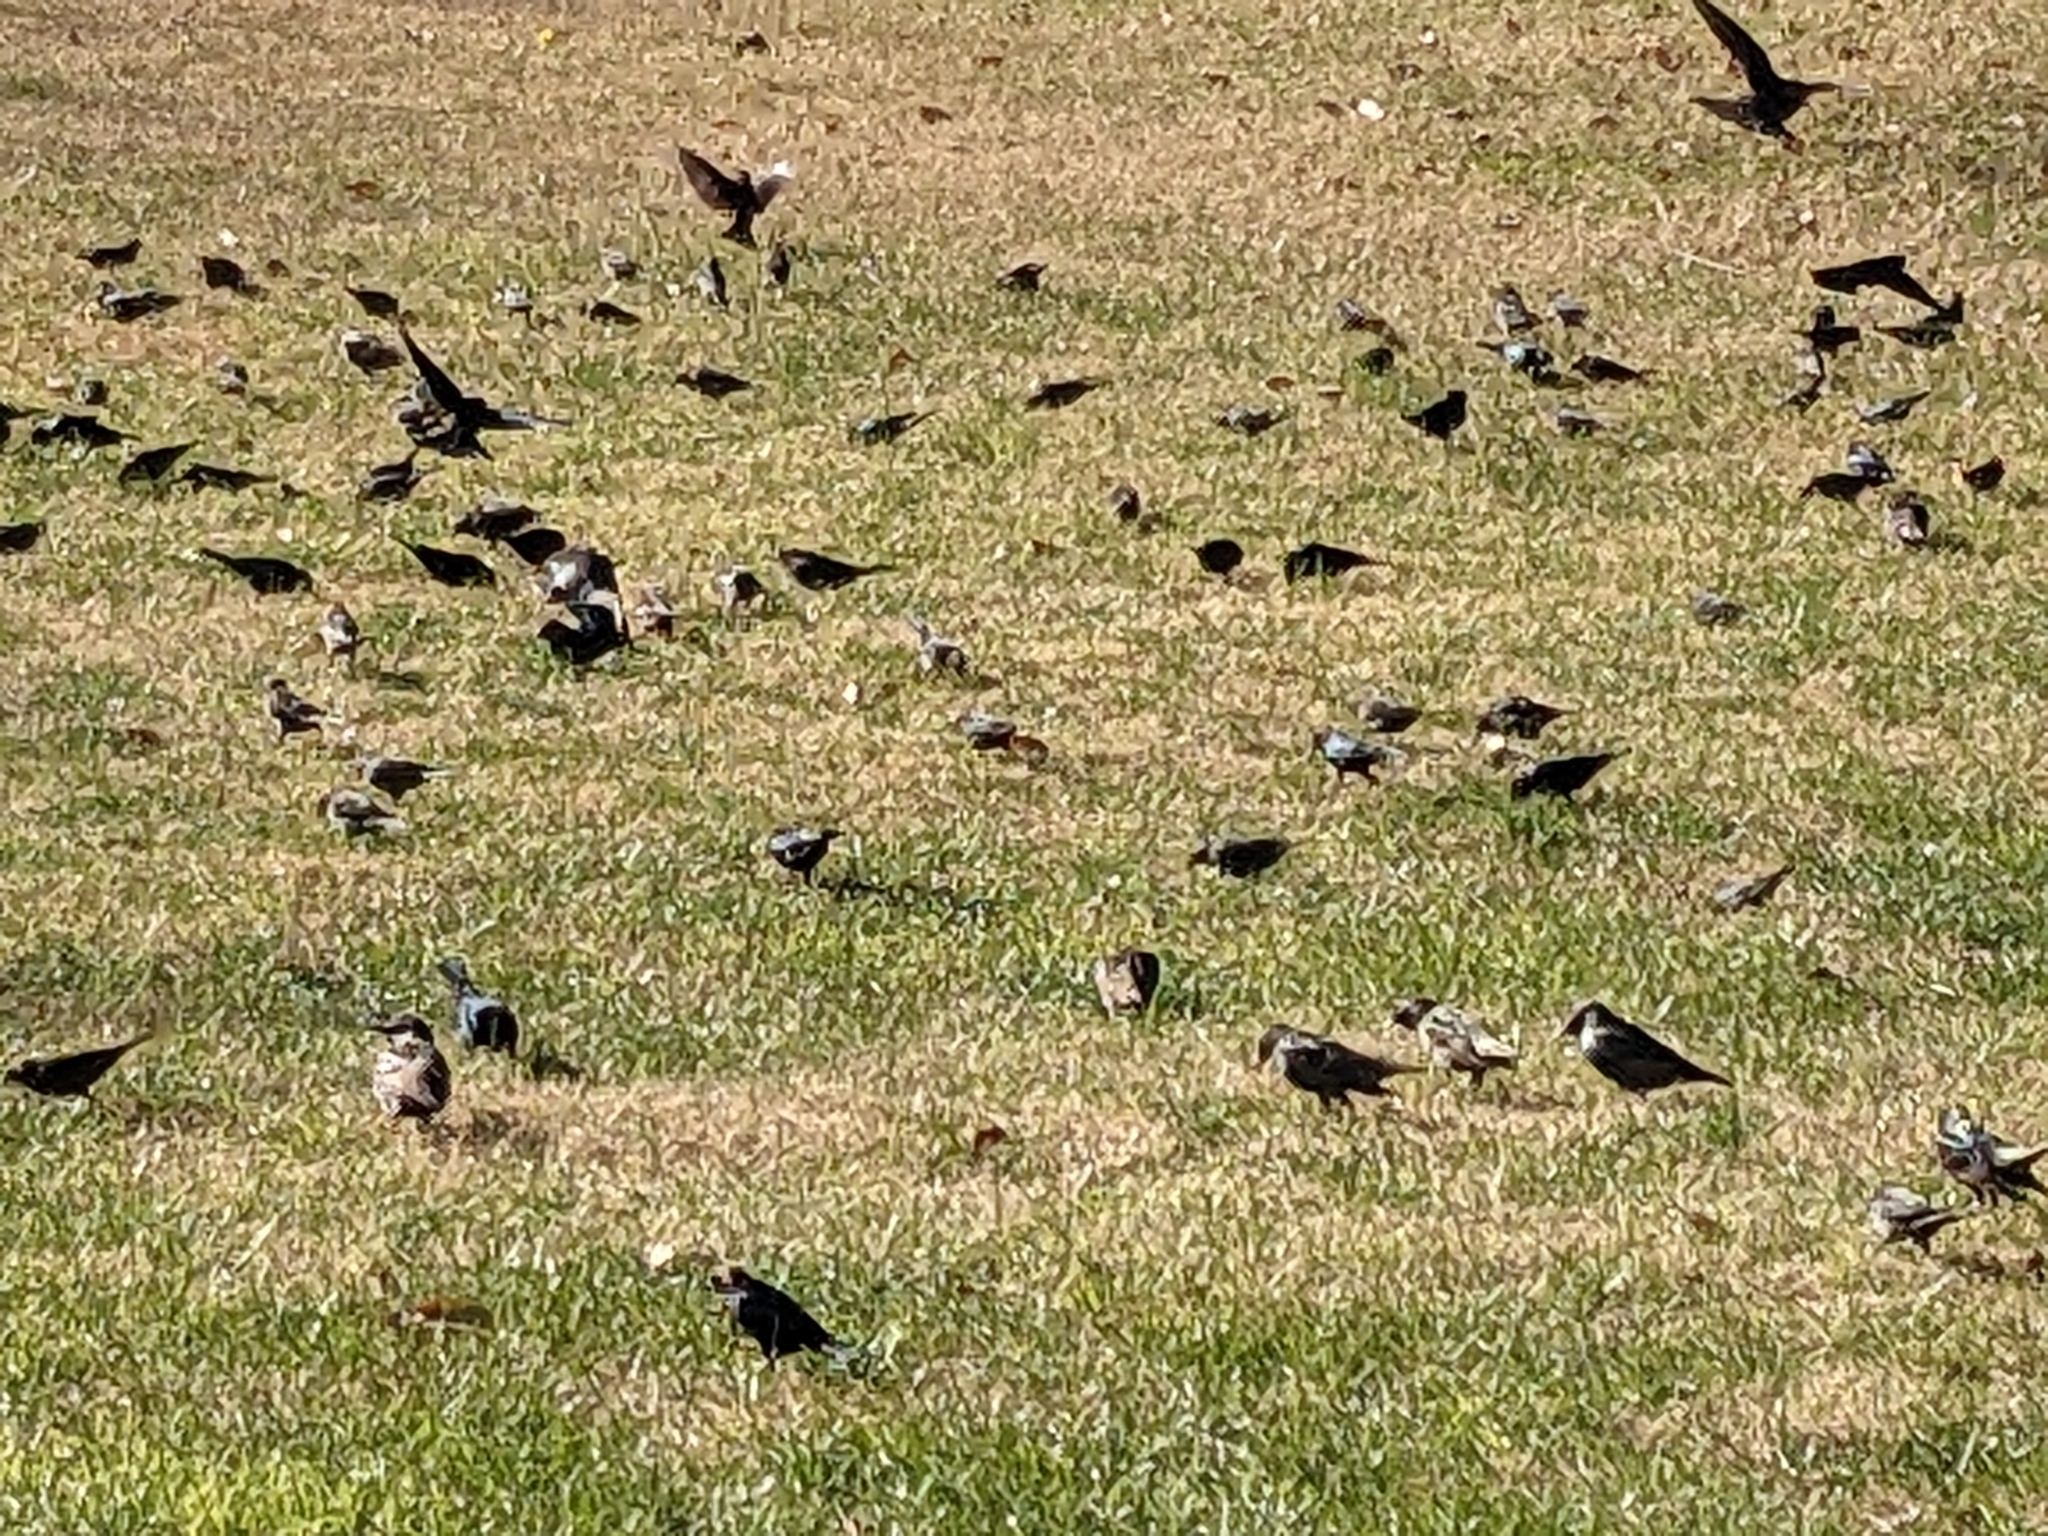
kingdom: Animalia
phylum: Chordata
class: Aves
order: Passeriformes
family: Sturnidae
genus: Sturnus
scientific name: Sturnus vulgaris
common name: Common starling
